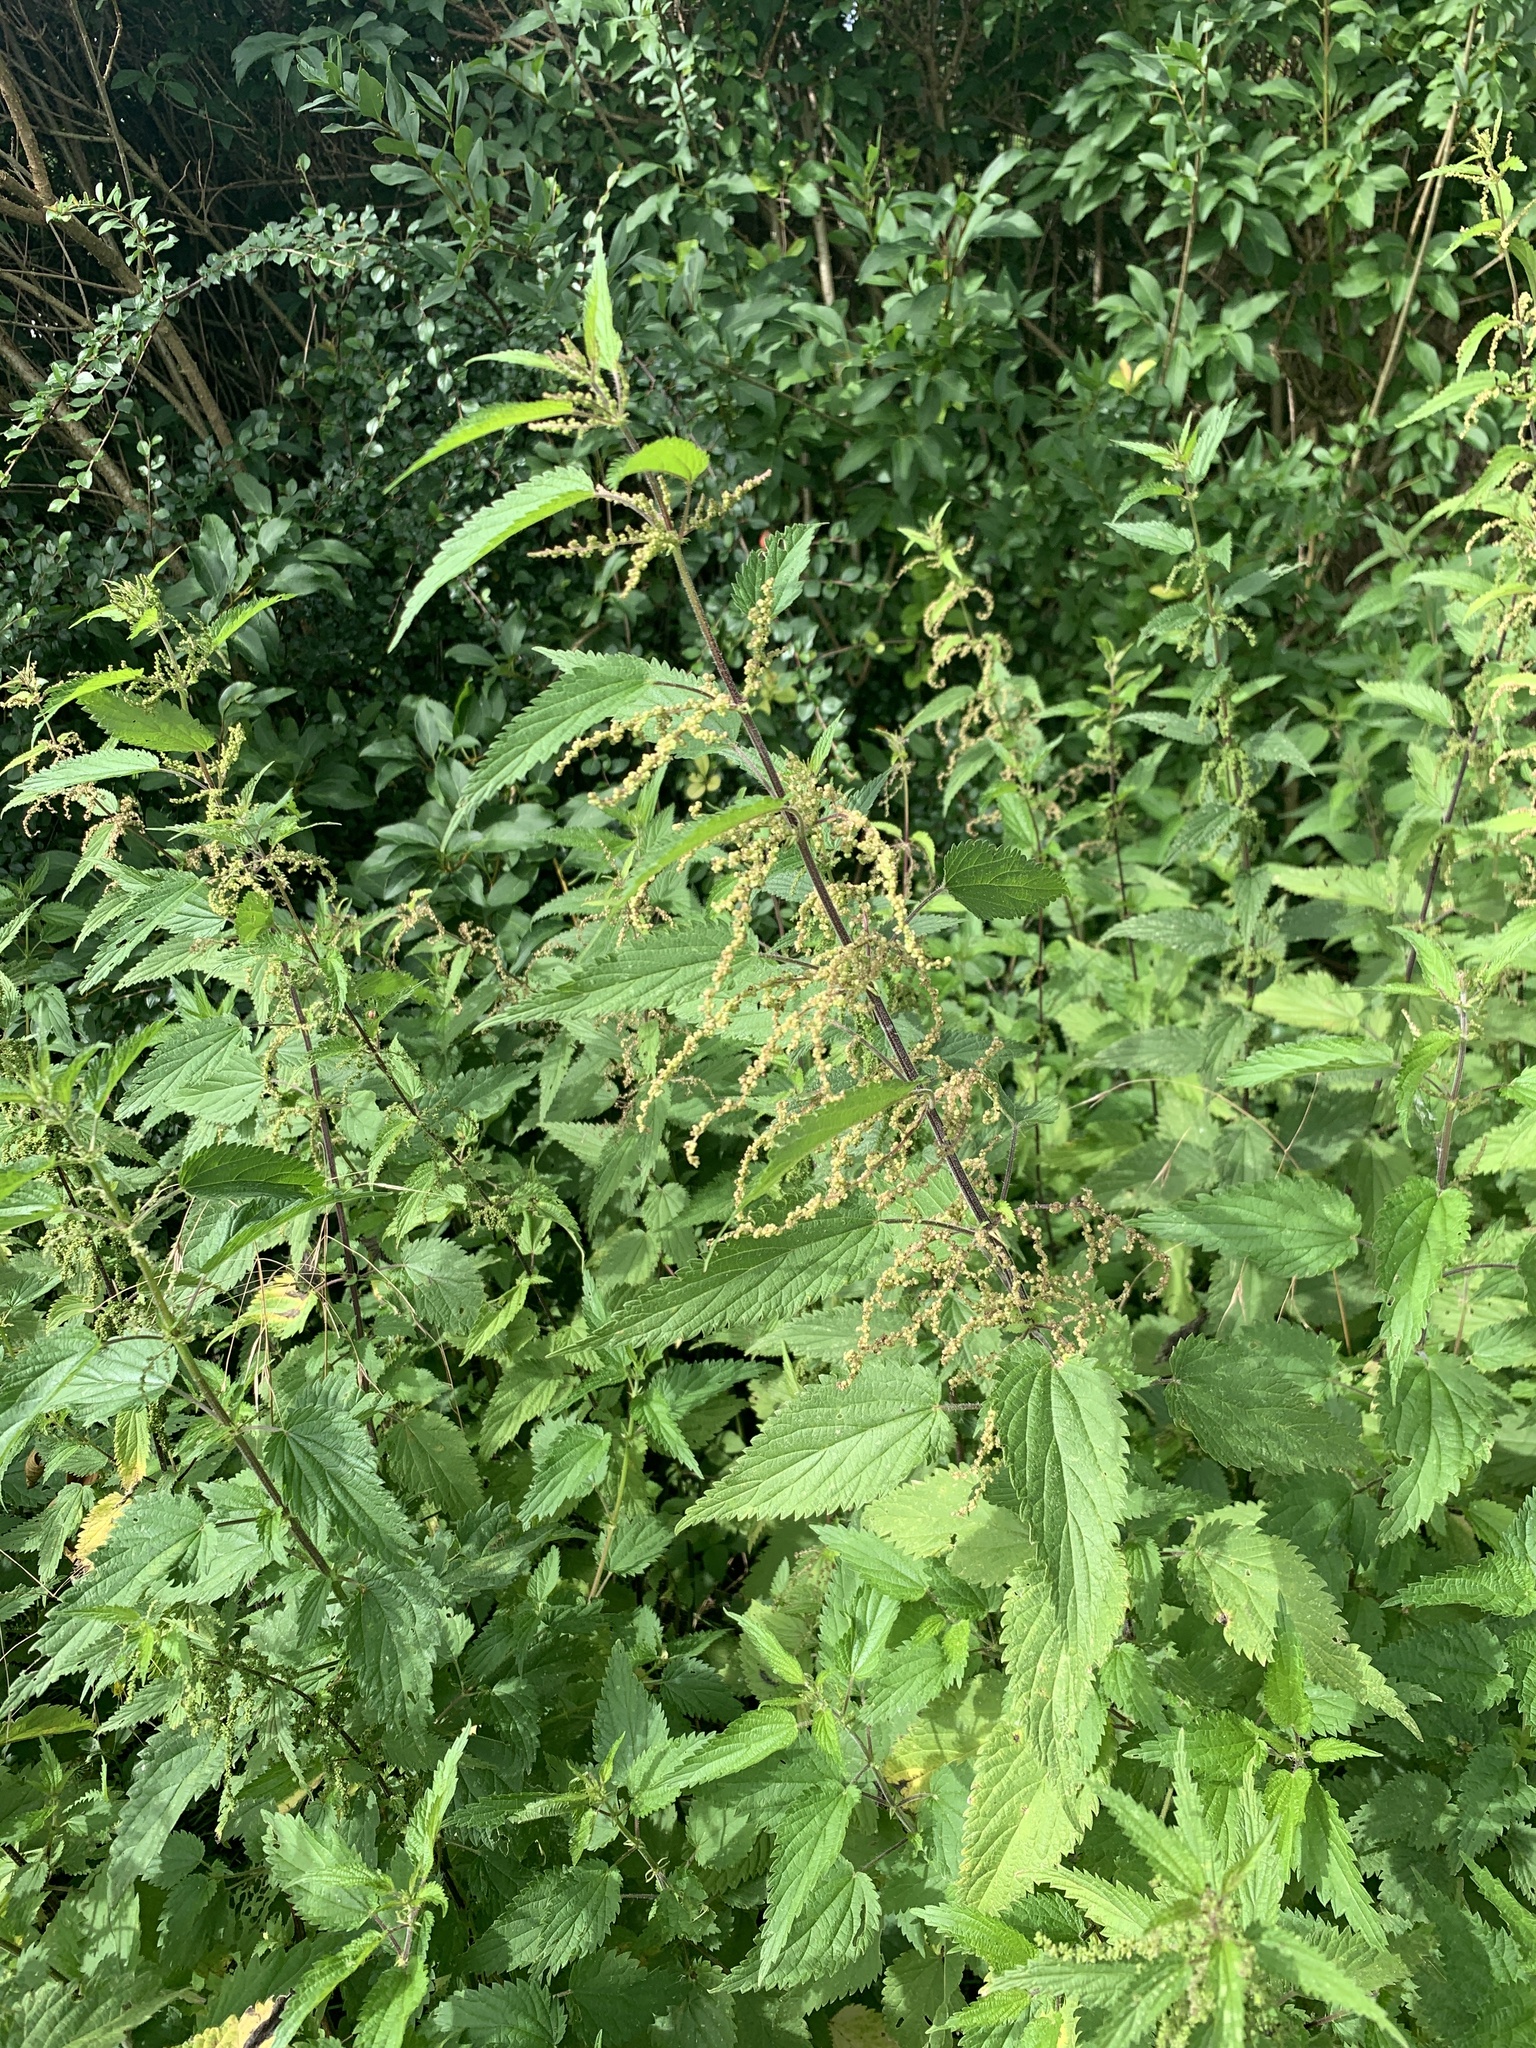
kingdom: Plantae
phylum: Tracheophyta
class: Magnoliopsida
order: Rosales
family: Urticaceae
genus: Urtica
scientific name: Urtica dioica
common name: Common nettle
